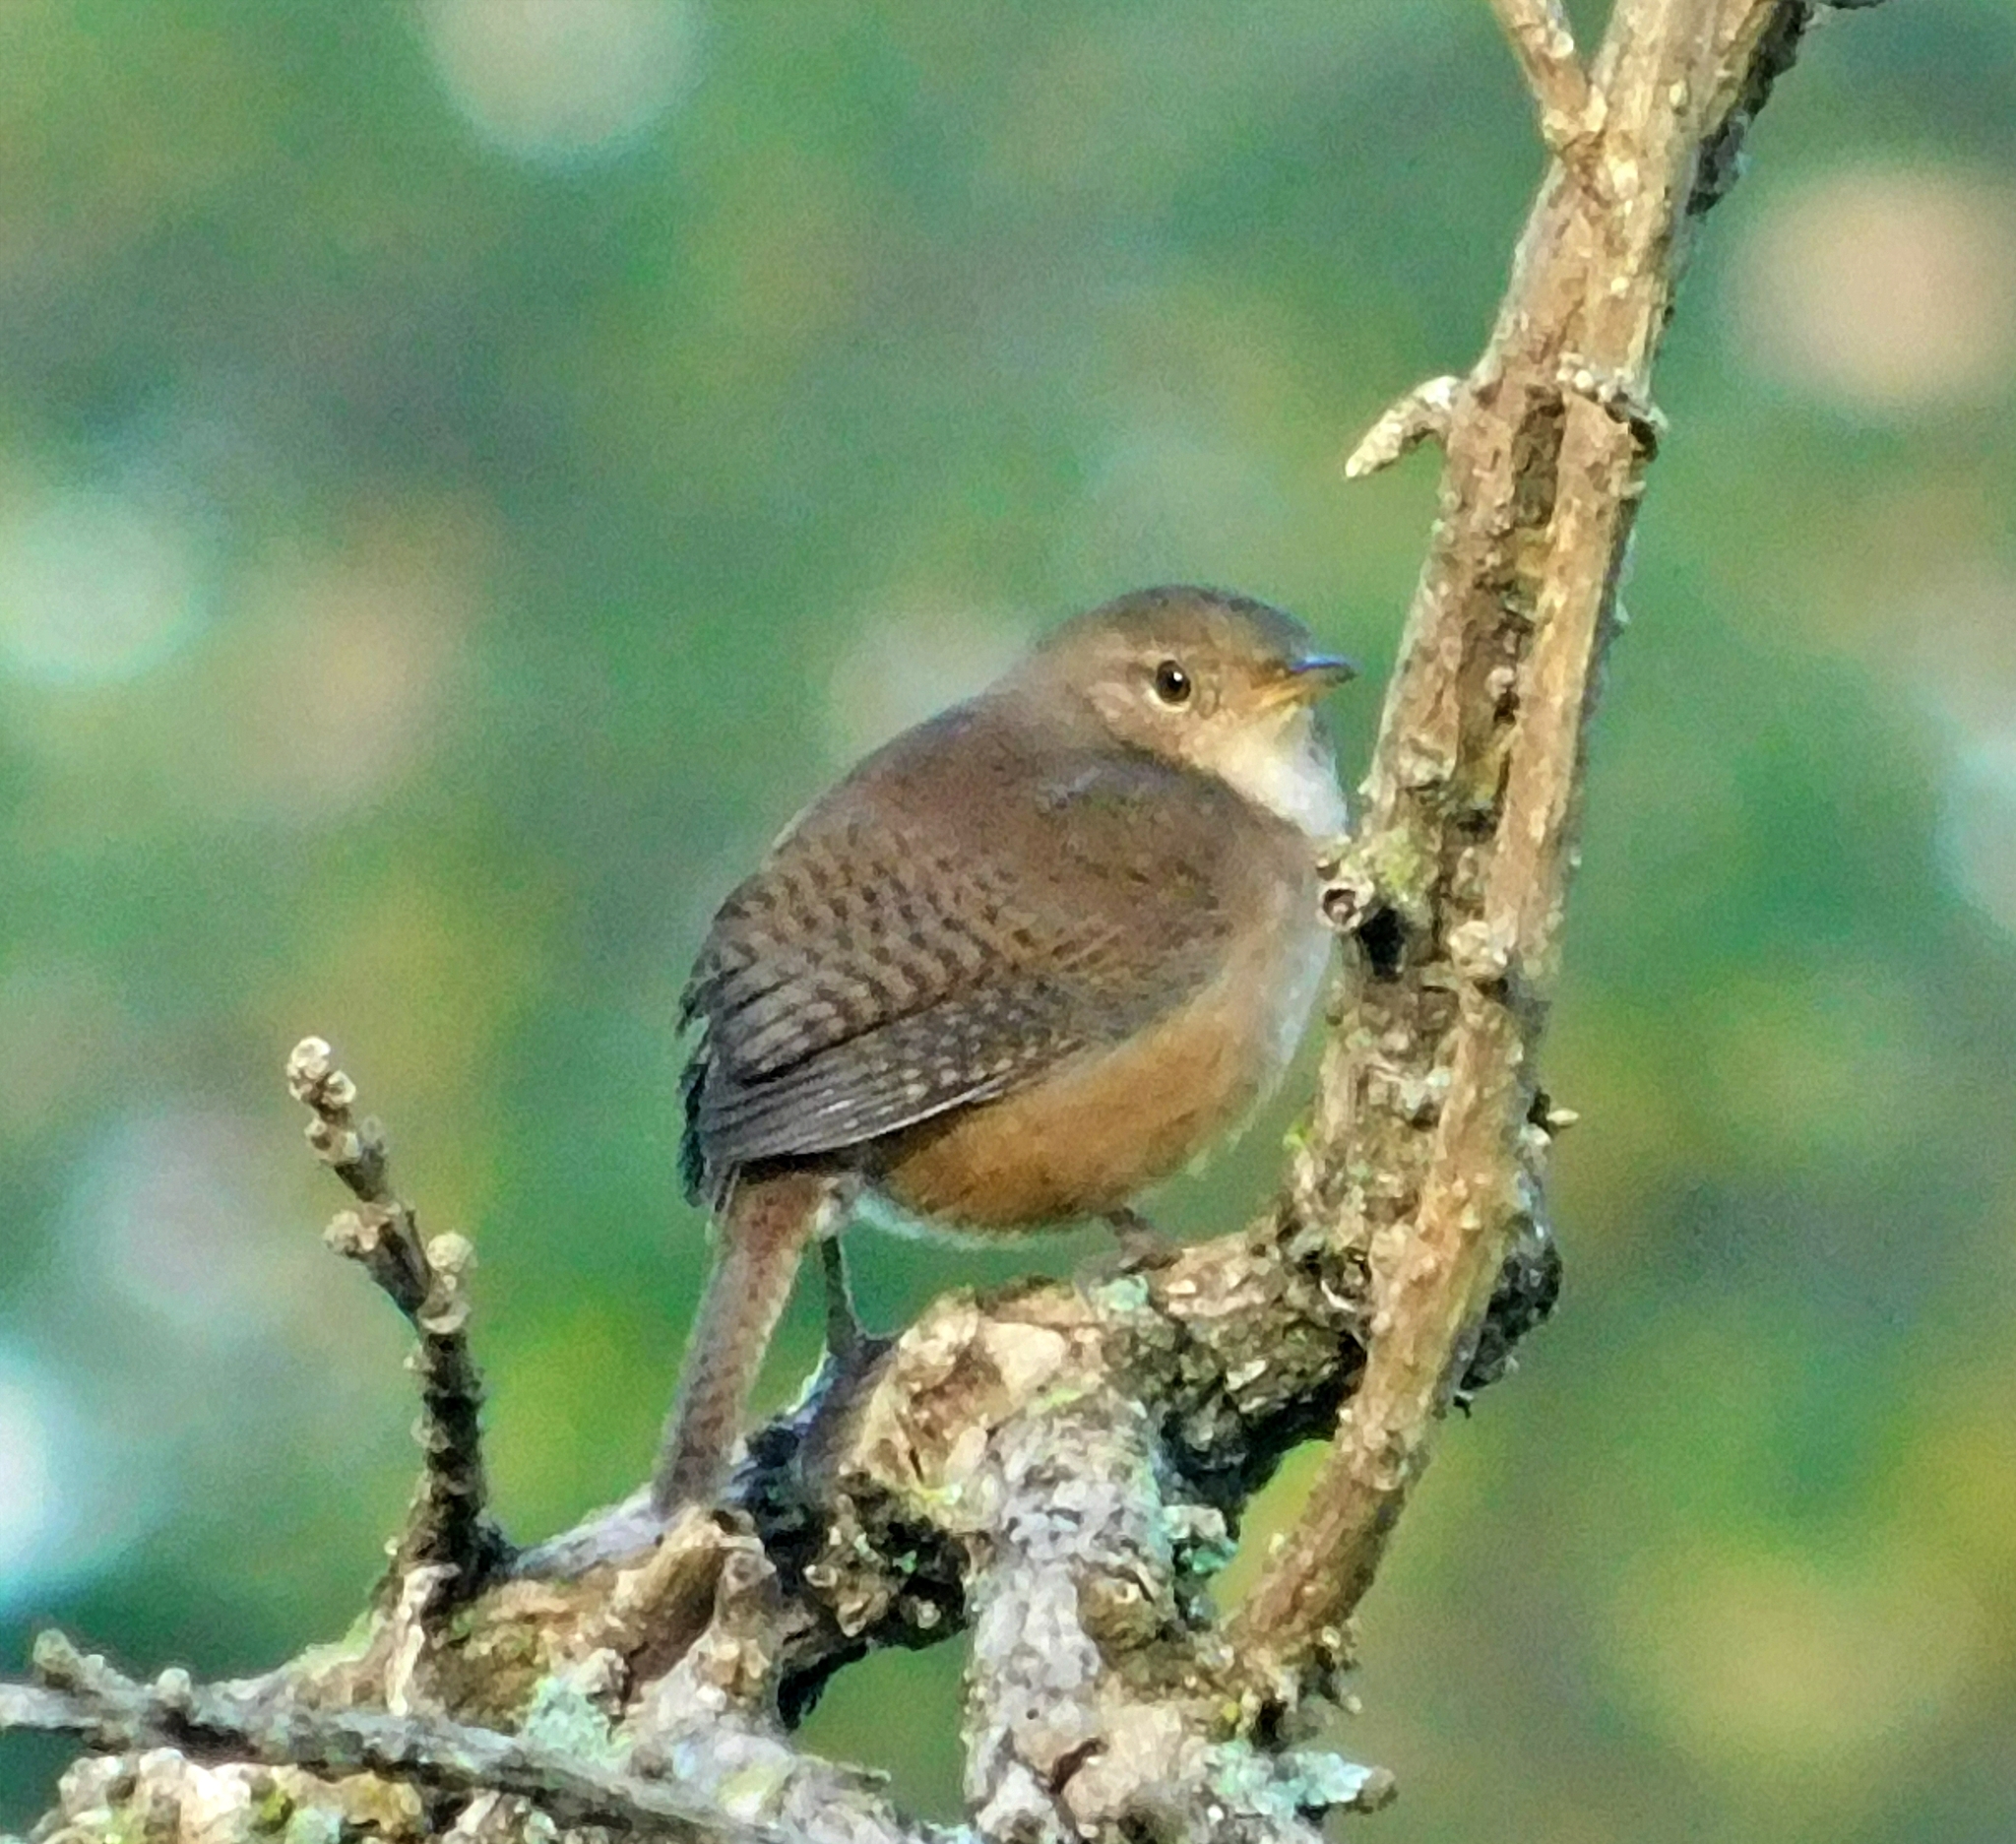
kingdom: Animalia
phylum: Chordata
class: Aves
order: Passeriformes
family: Troglodytidae
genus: Troglodytes
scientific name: Troglodytes aedon
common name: House wren
